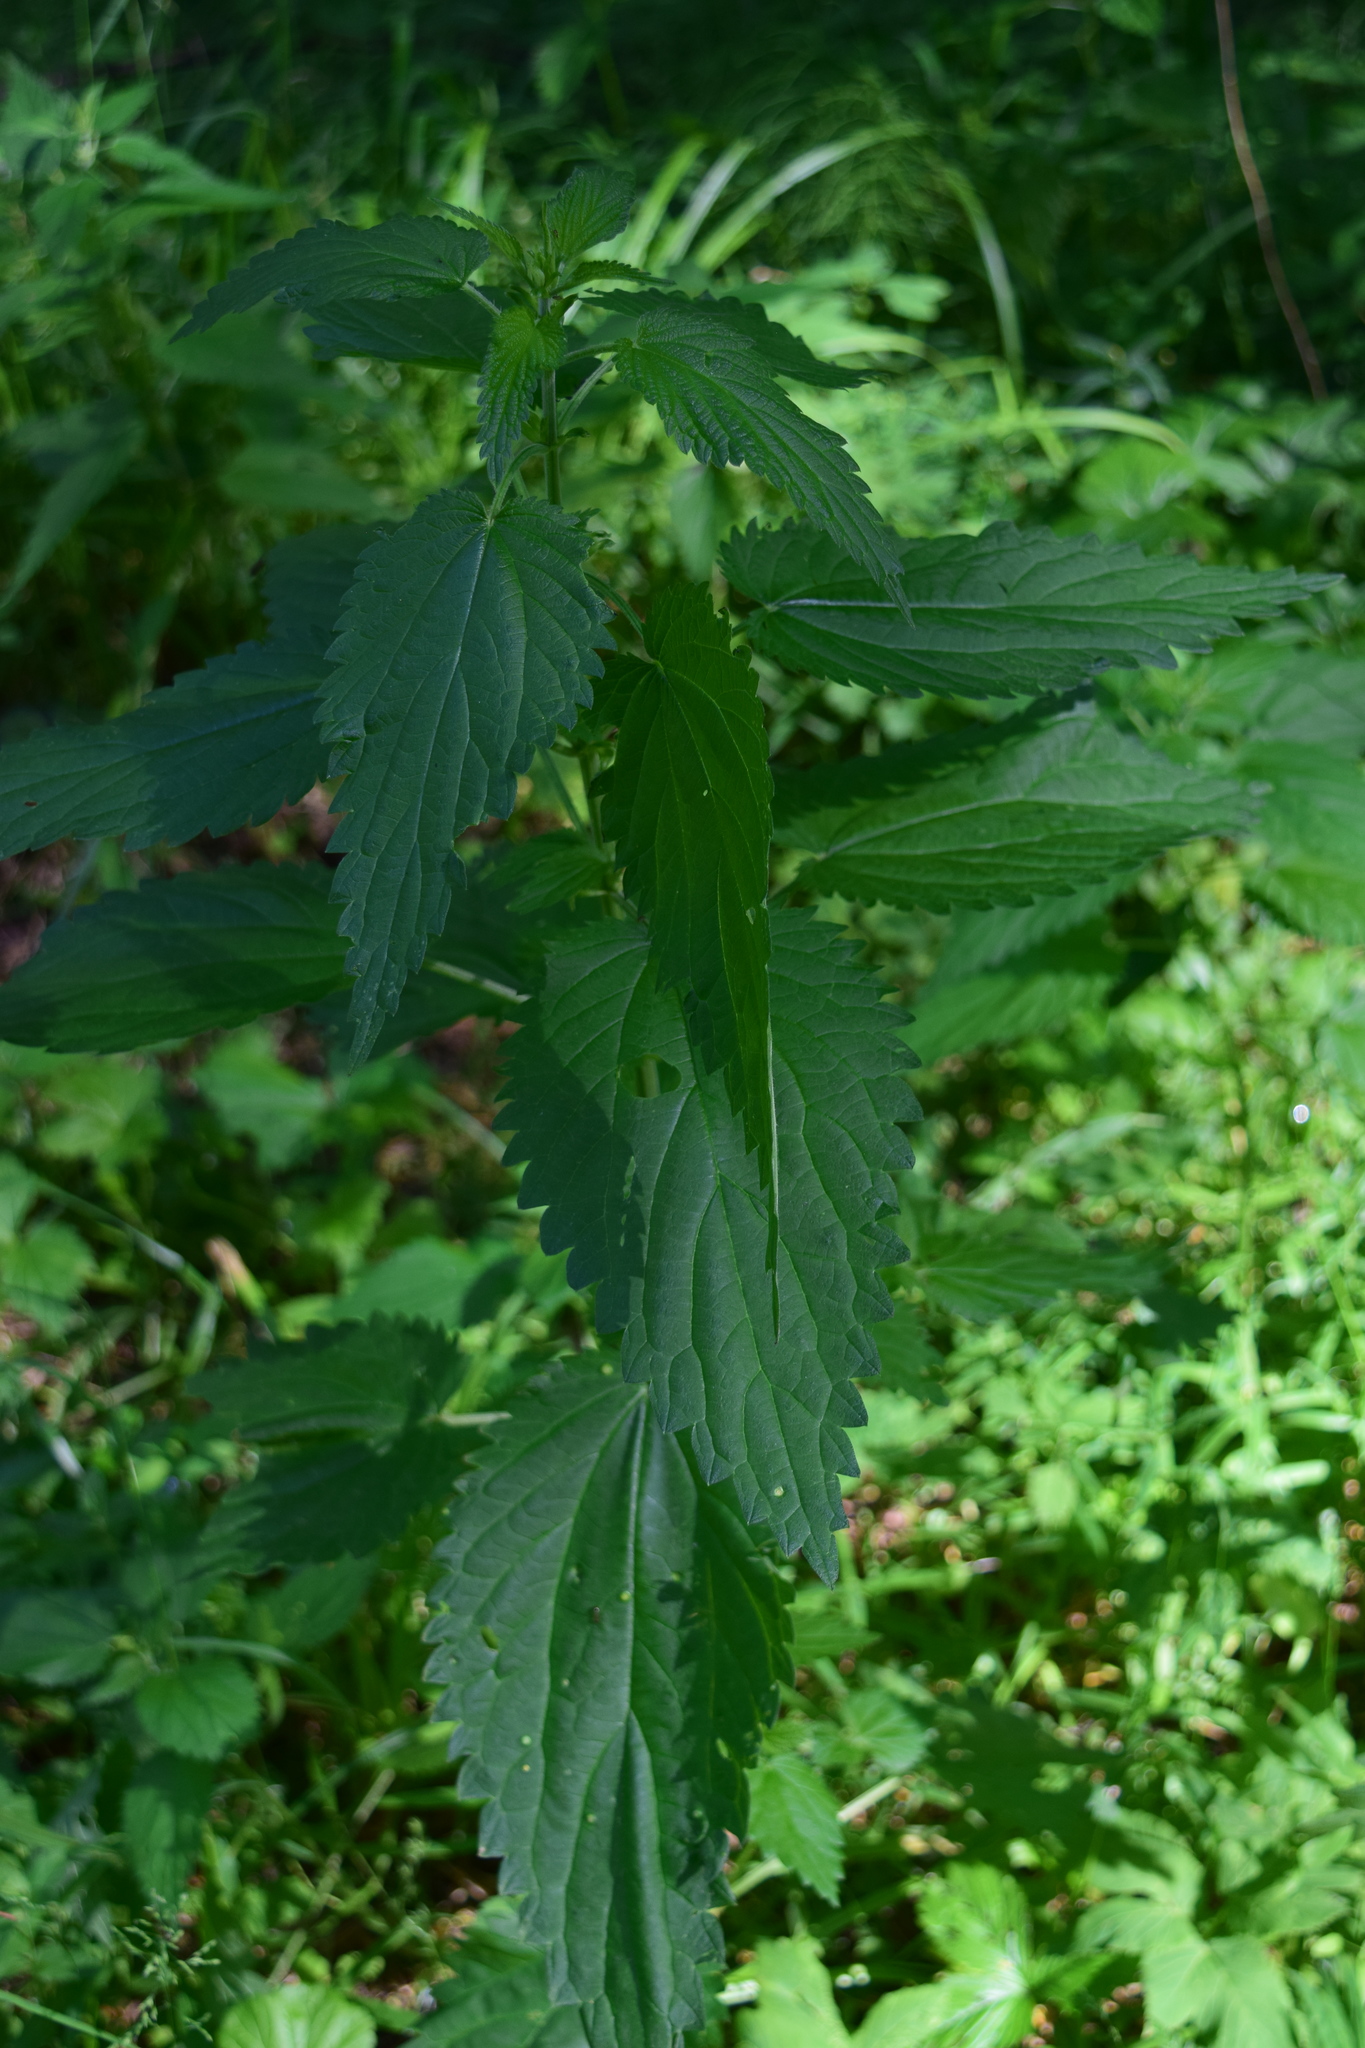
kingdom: Plantae
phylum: Tracheophyta
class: Magnoliopsida
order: Rosales
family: Urticaceae
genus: Urtica
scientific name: Urtica dioica
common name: Common nettle
